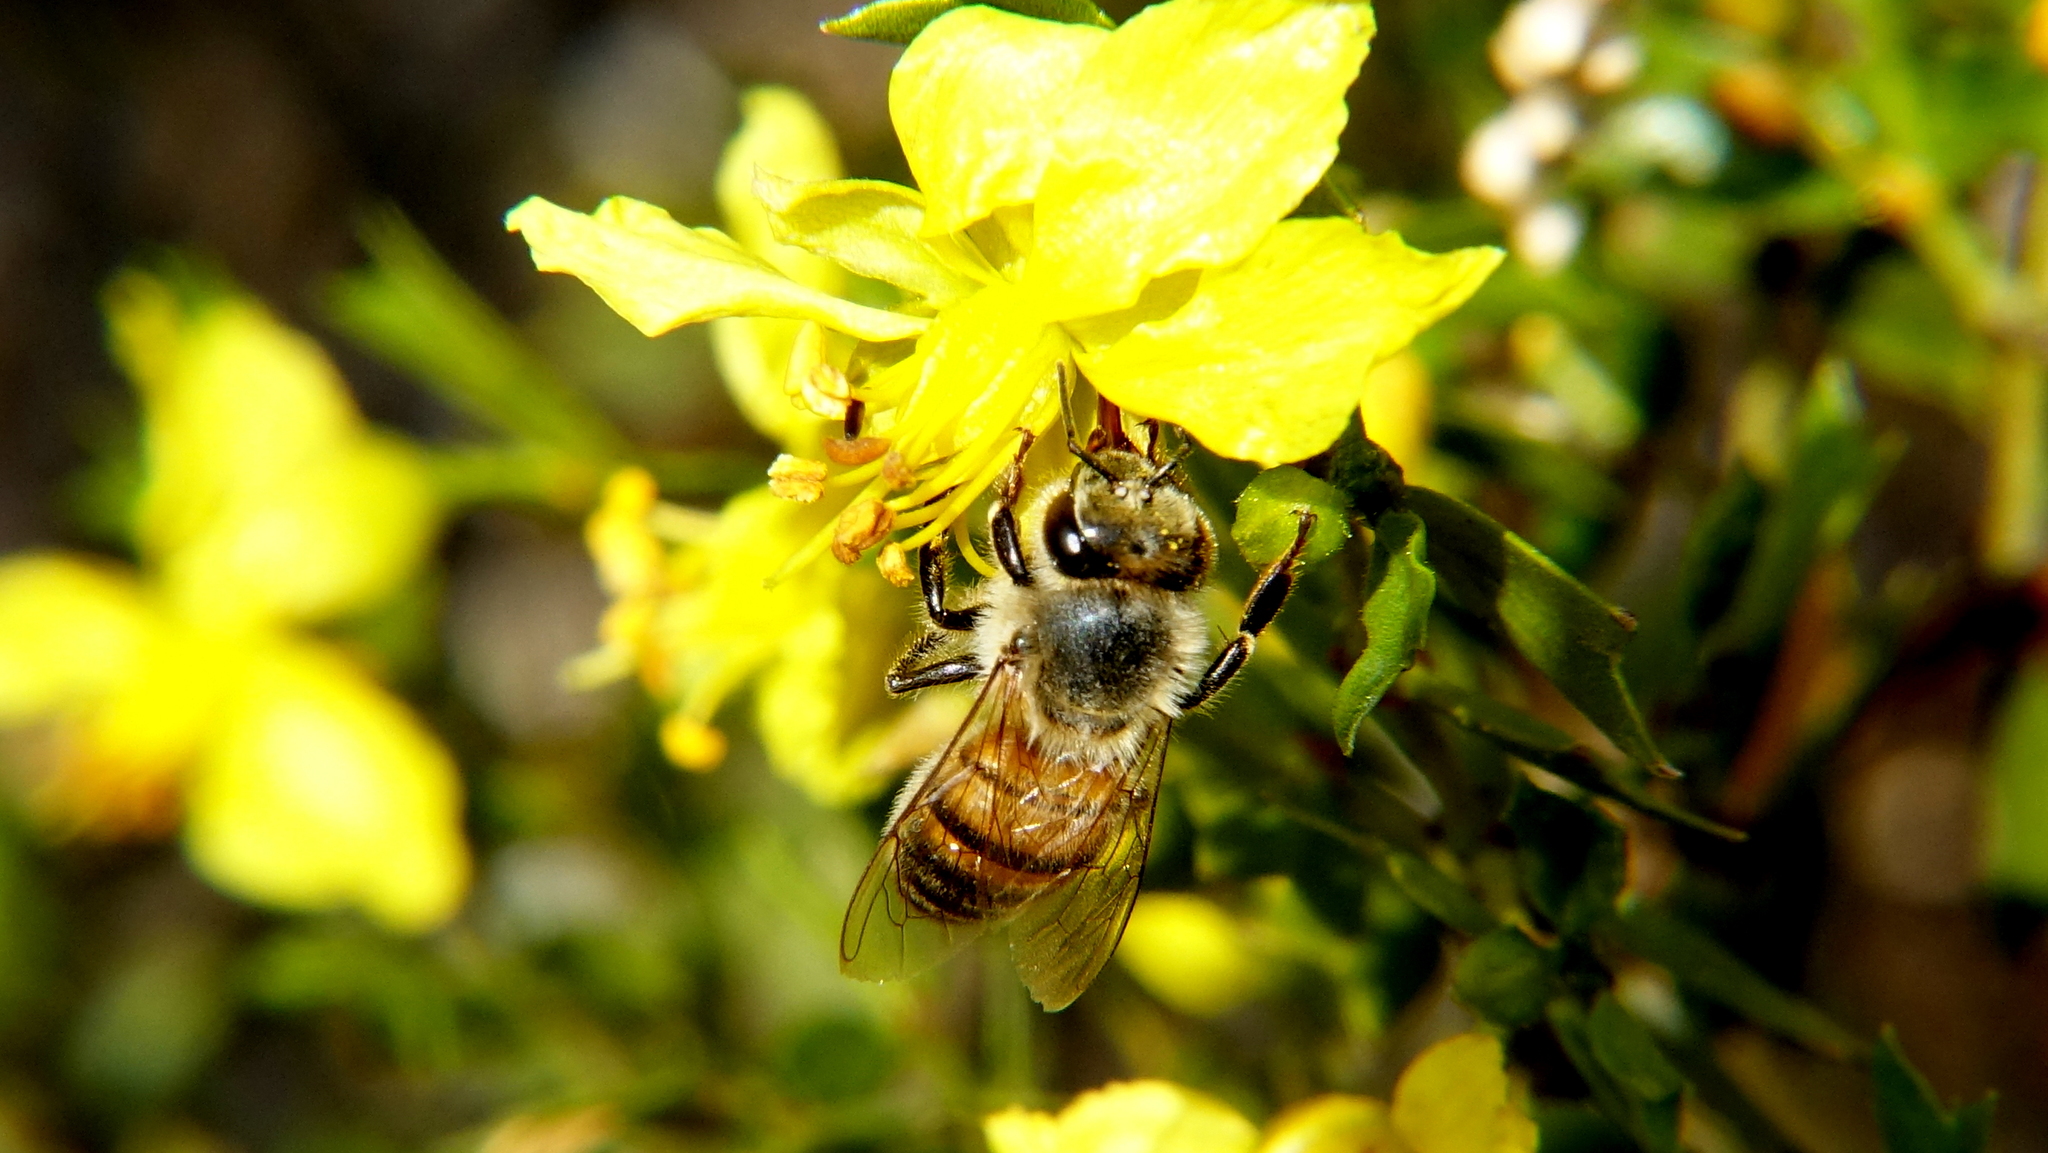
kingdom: Animalia
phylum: Arthropoda
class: Insecta
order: Hymenoptera
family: Apidae
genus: Apis
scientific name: Apis mellifera
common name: Honey bee
